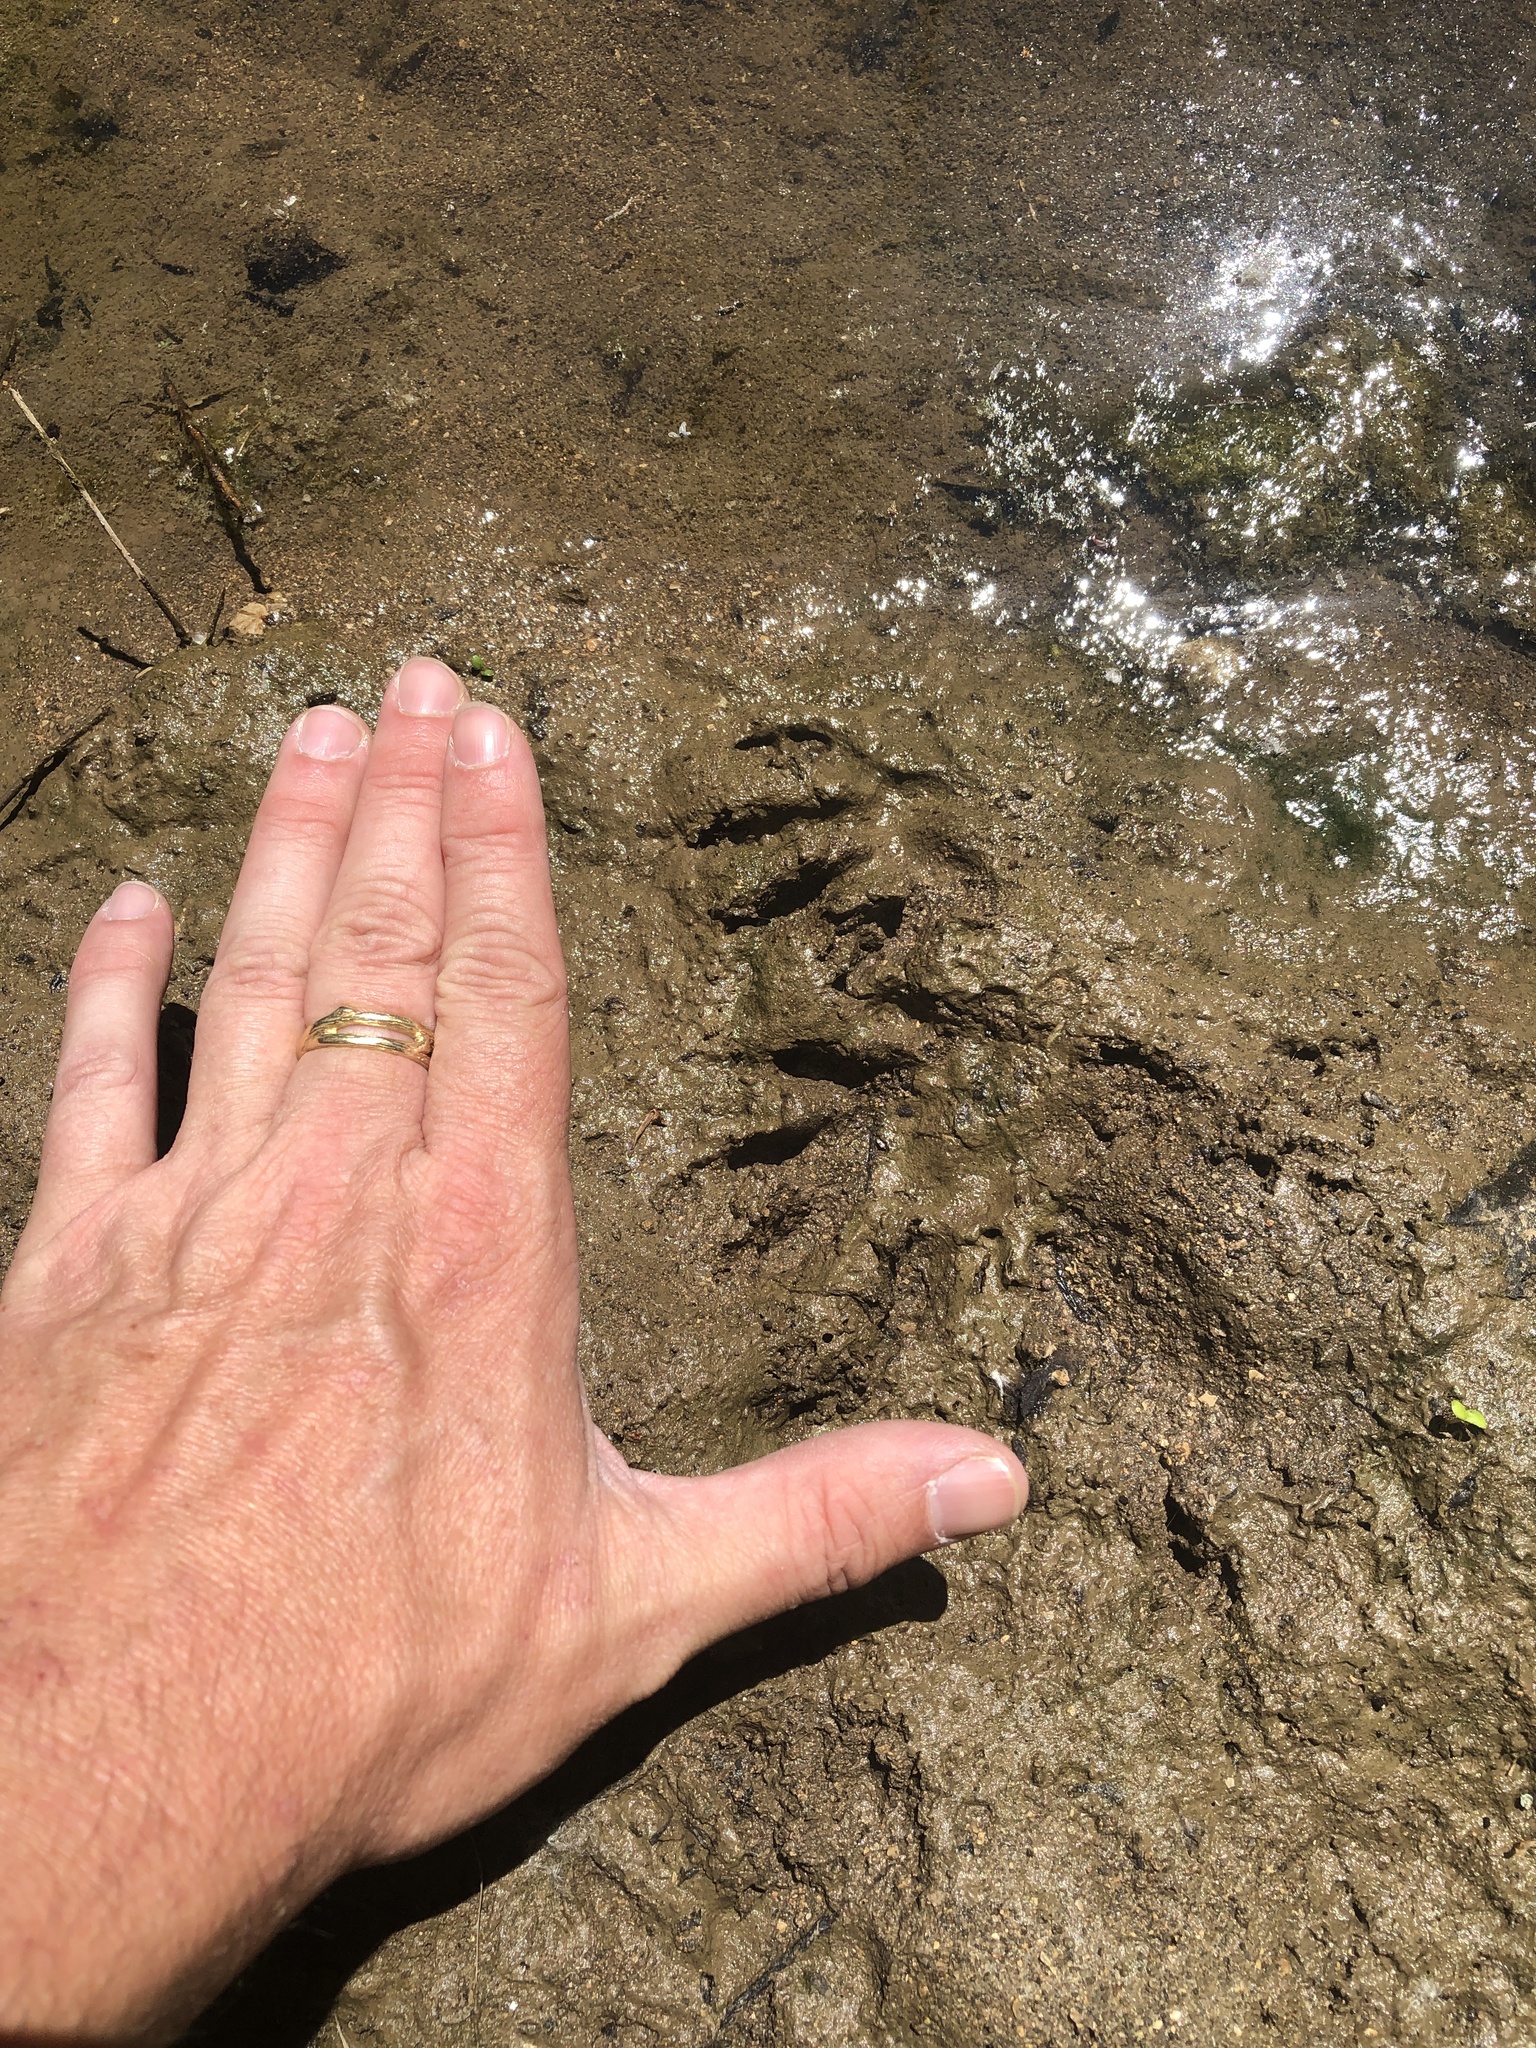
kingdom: Animalia
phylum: Chordata
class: Mammalia
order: Carnivora
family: Procyonidae
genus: Procyon
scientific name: Procyon lotor
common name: Raccoon
